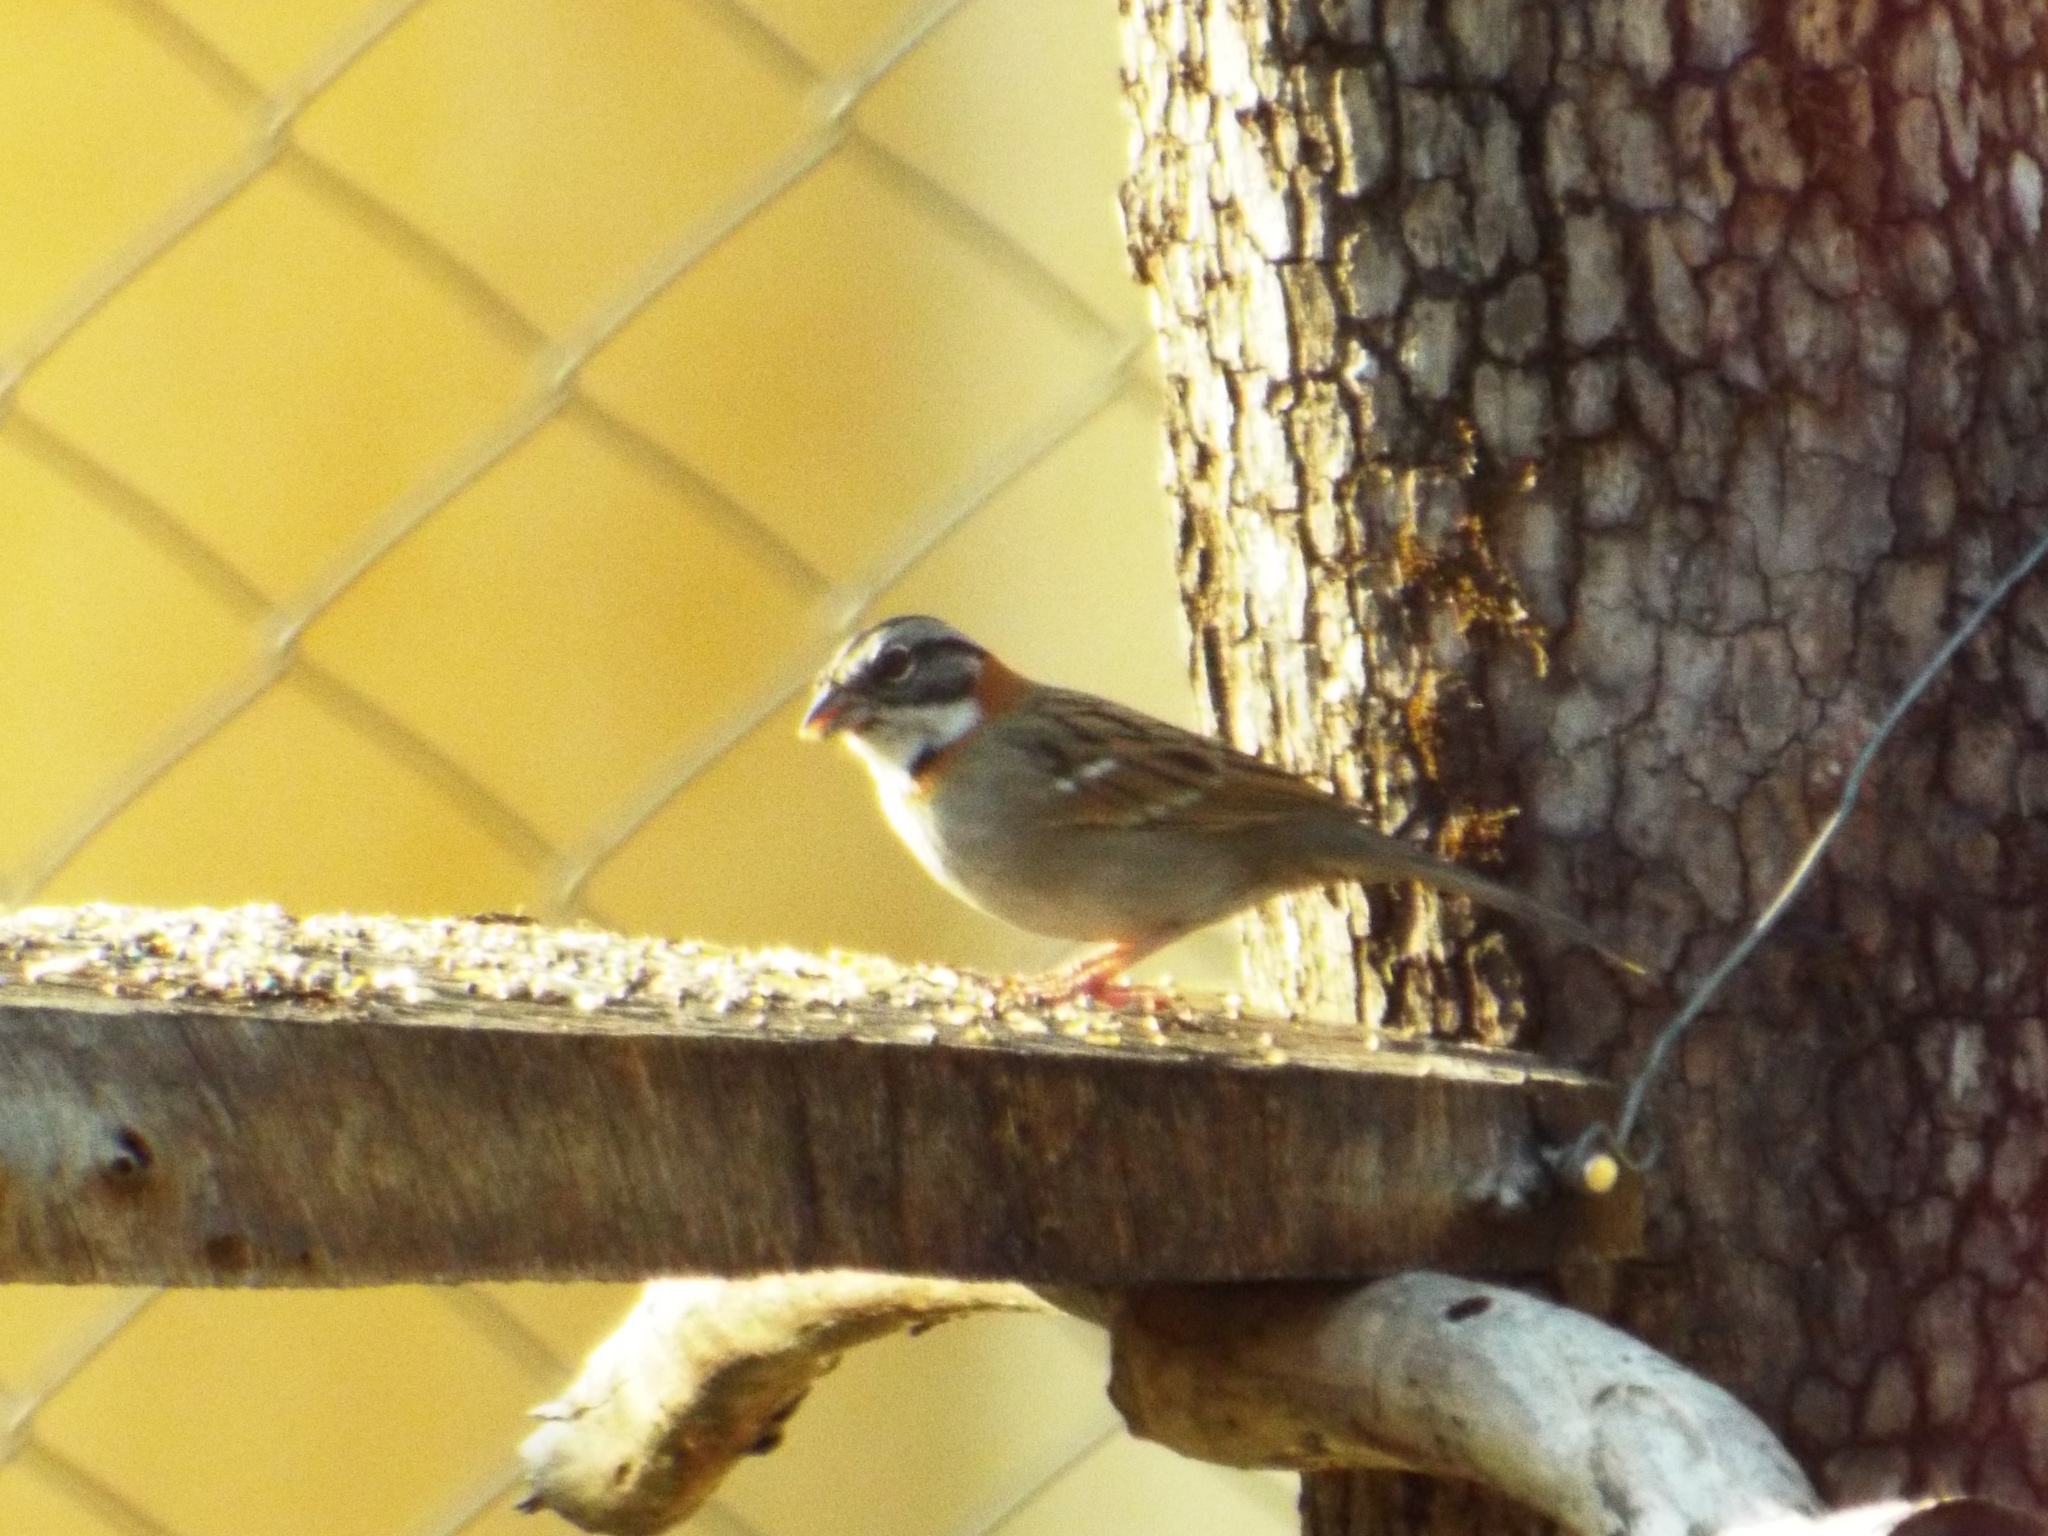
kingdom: Animalia
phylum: Chordata
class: Aves
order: Passeriformes
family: Passerellidae
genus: Zonotrichia
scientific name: Zonotrichia capensis
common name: Rufous-collared sparrow
